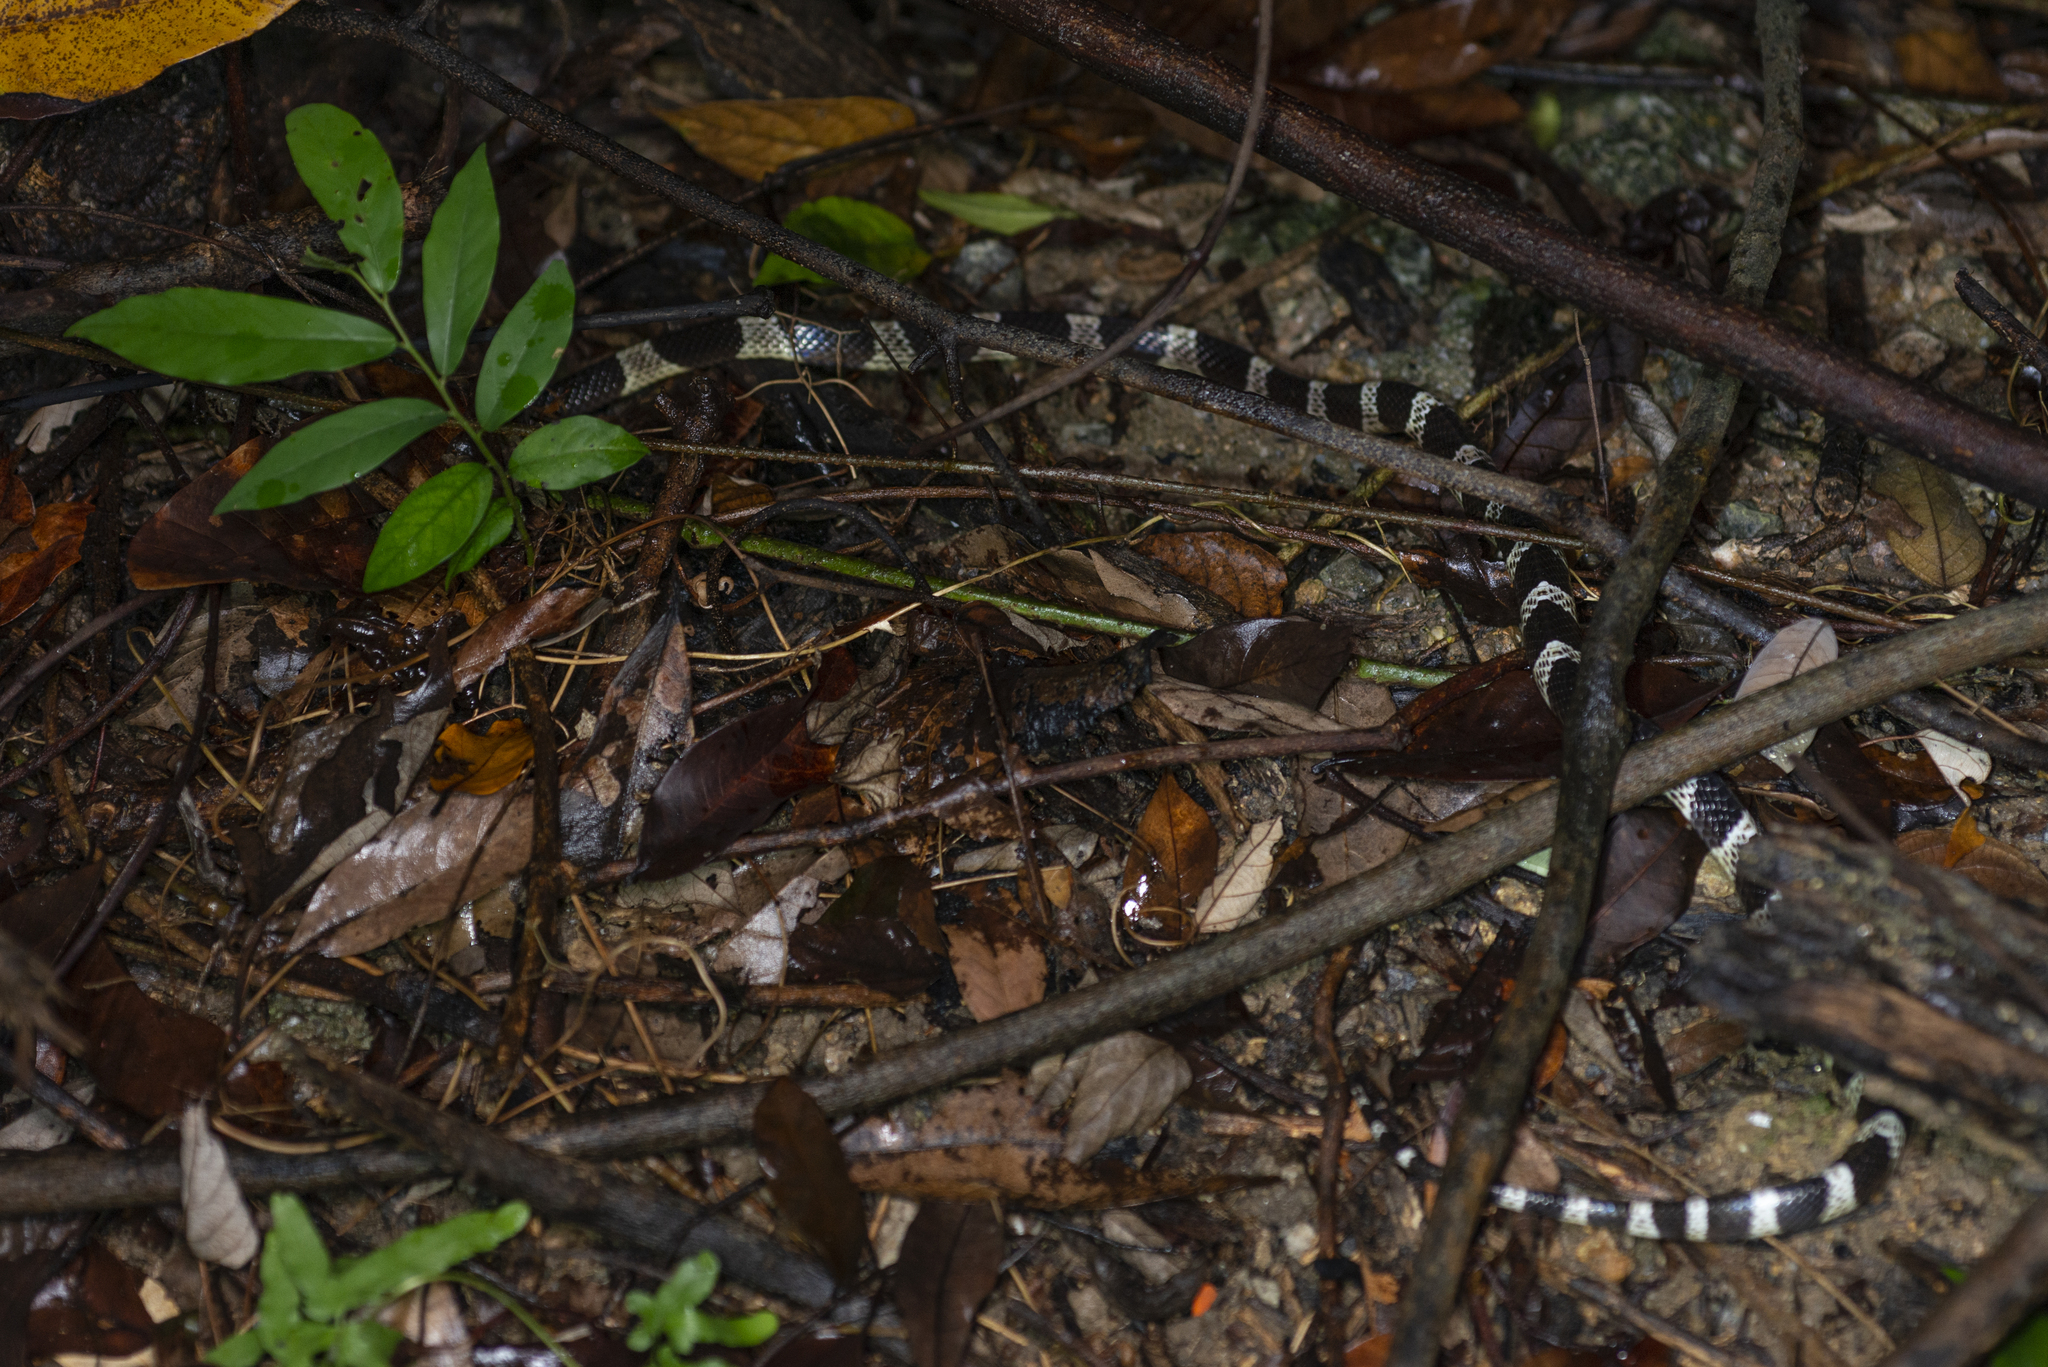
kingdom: Animalia
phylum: Chordata
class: Squamata
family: Elapidae
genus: Bungarus
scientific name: Bungarus multicinctus
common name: Many-banded krait
